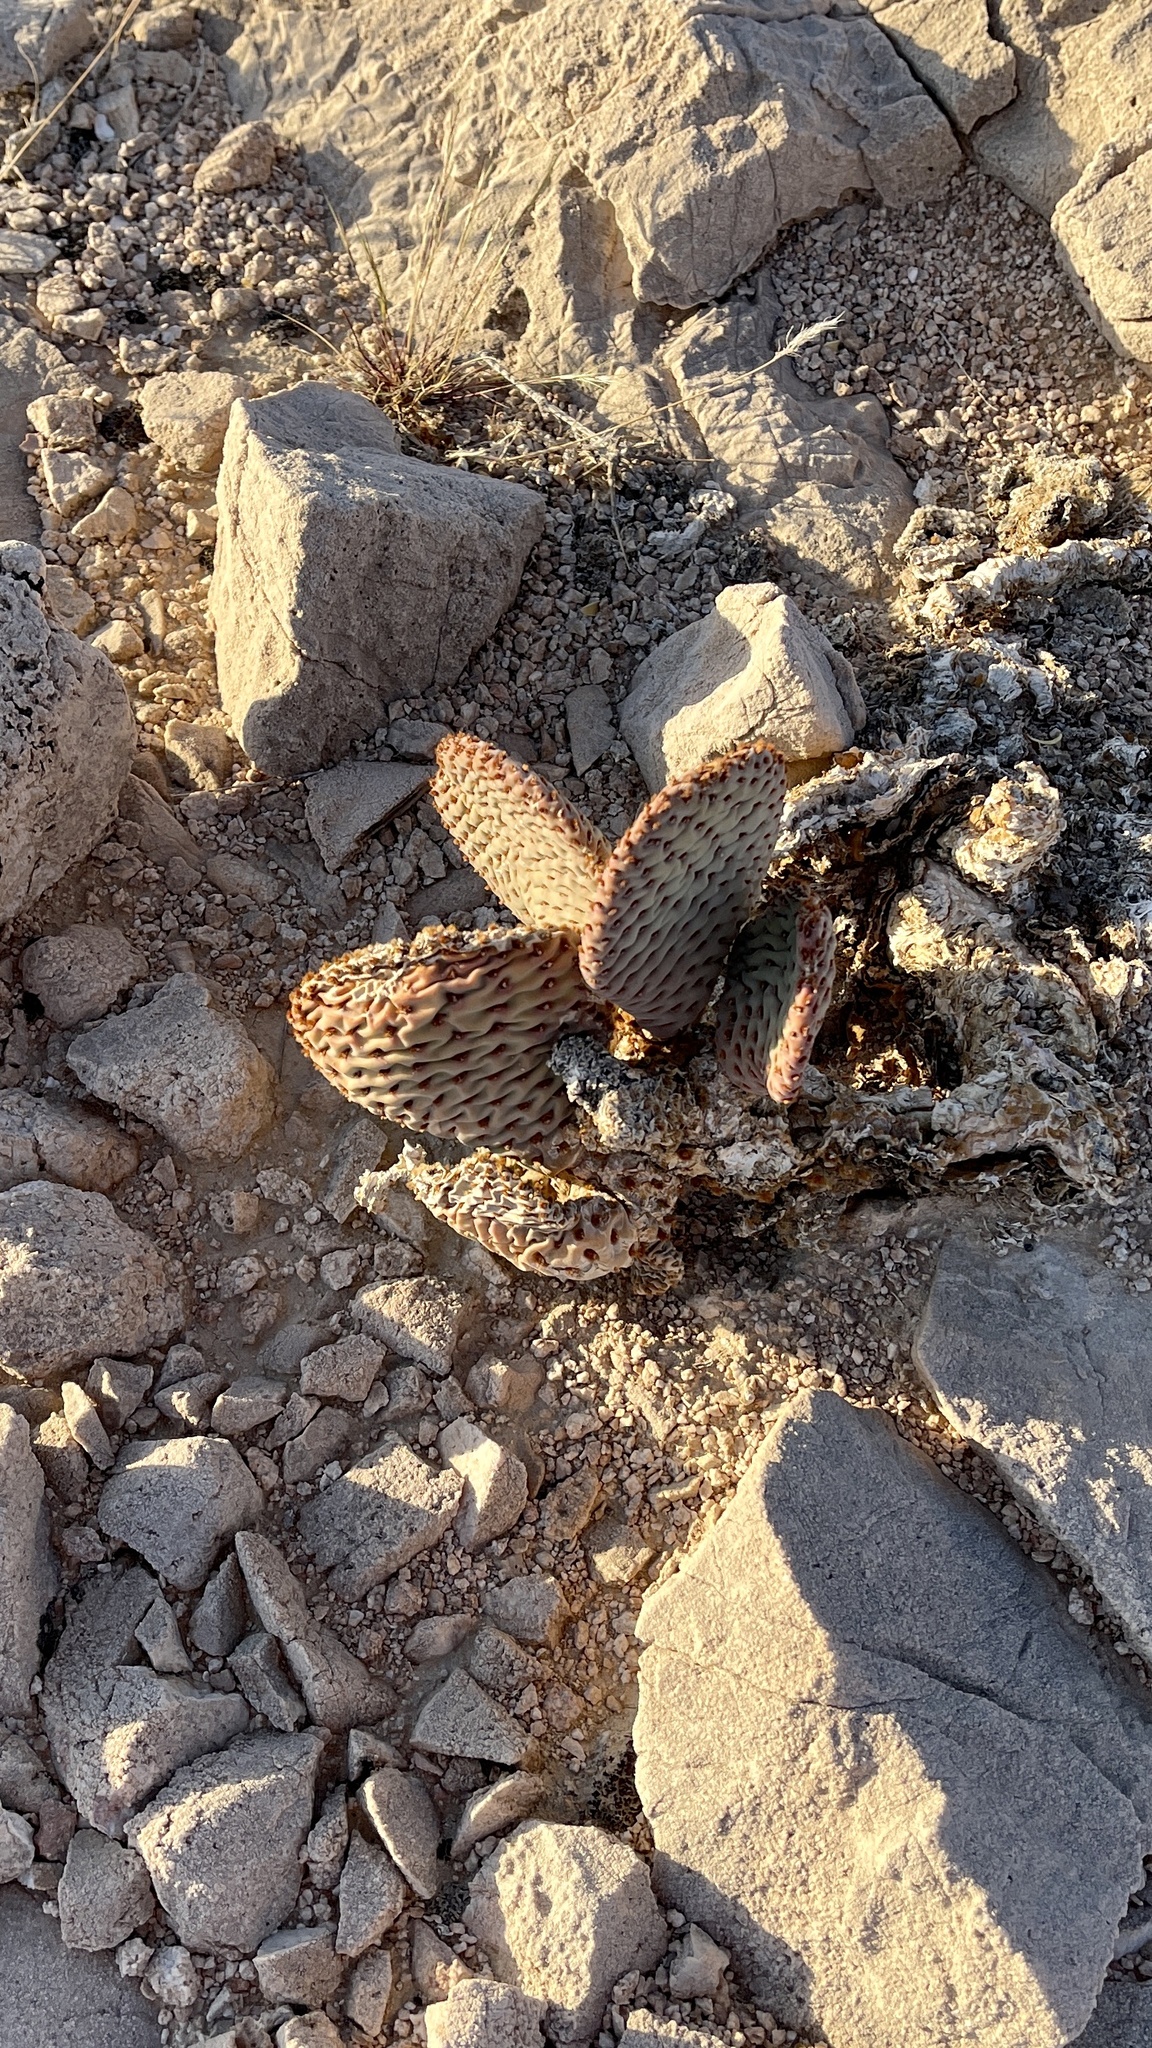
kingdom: Plantae
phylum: Tracheophyta
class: Magnoliopsida
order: Caryophyllales
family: Cactaceae
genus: Opuntia
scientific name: Opuntia basilaris
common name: Beavertail prickly-pear
